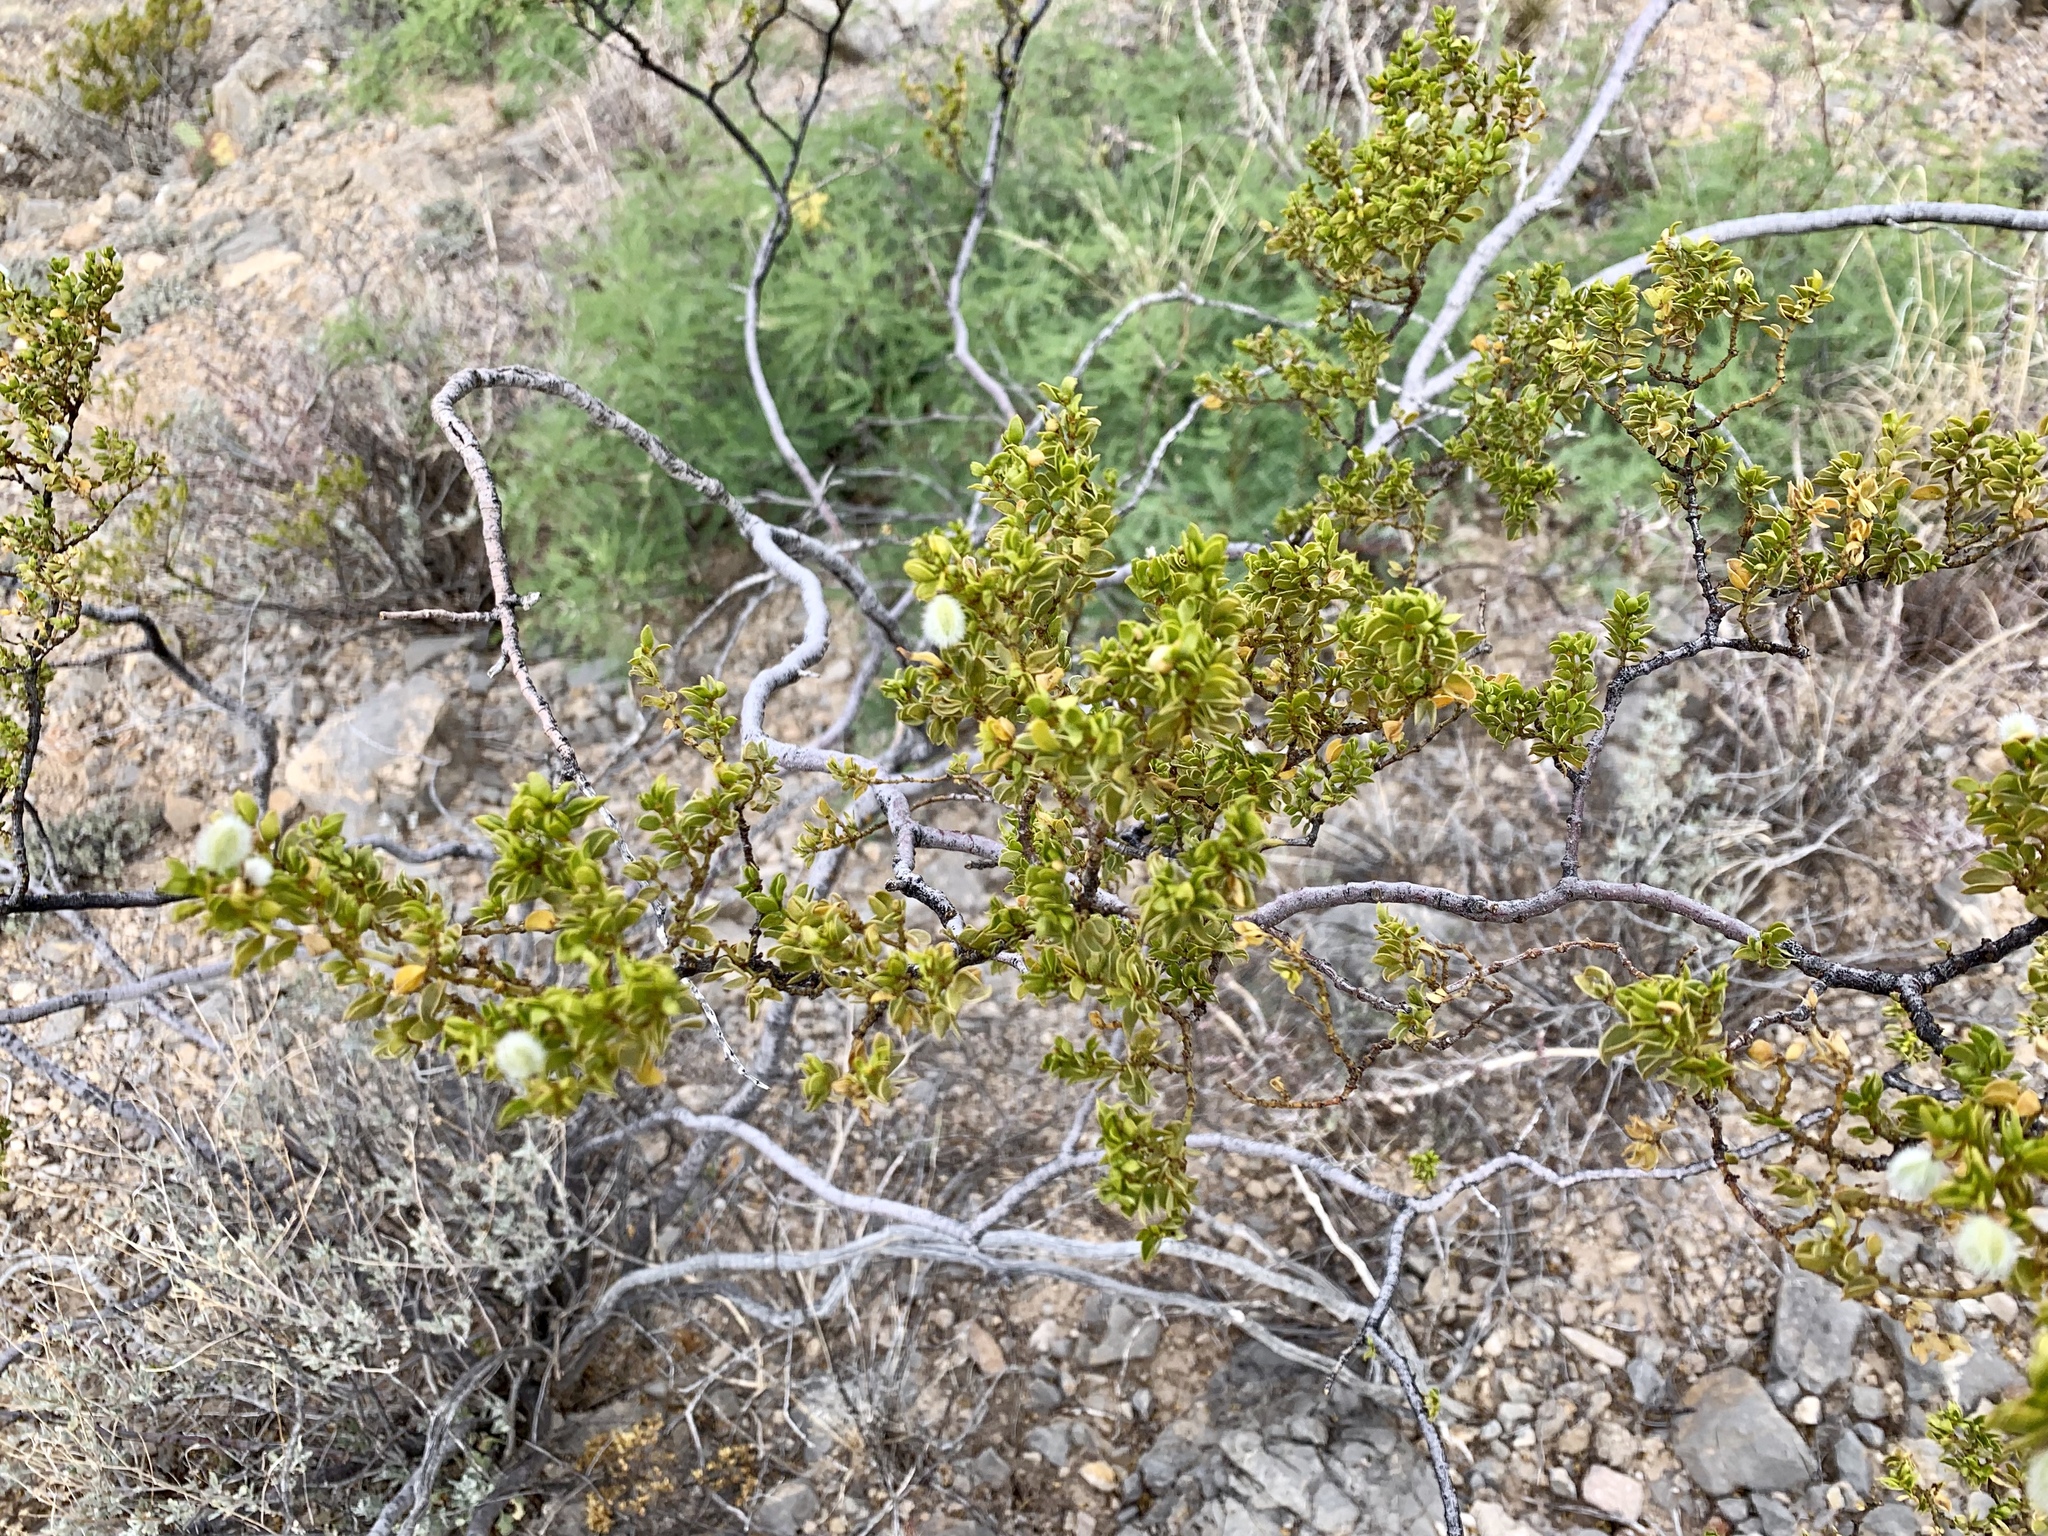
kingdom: Plantae
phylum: Tracheophyta
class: Magnoliopsida
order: Zygophyllales
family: Zygophyllaceae
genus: Larrea
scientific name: Larrea tridentata
